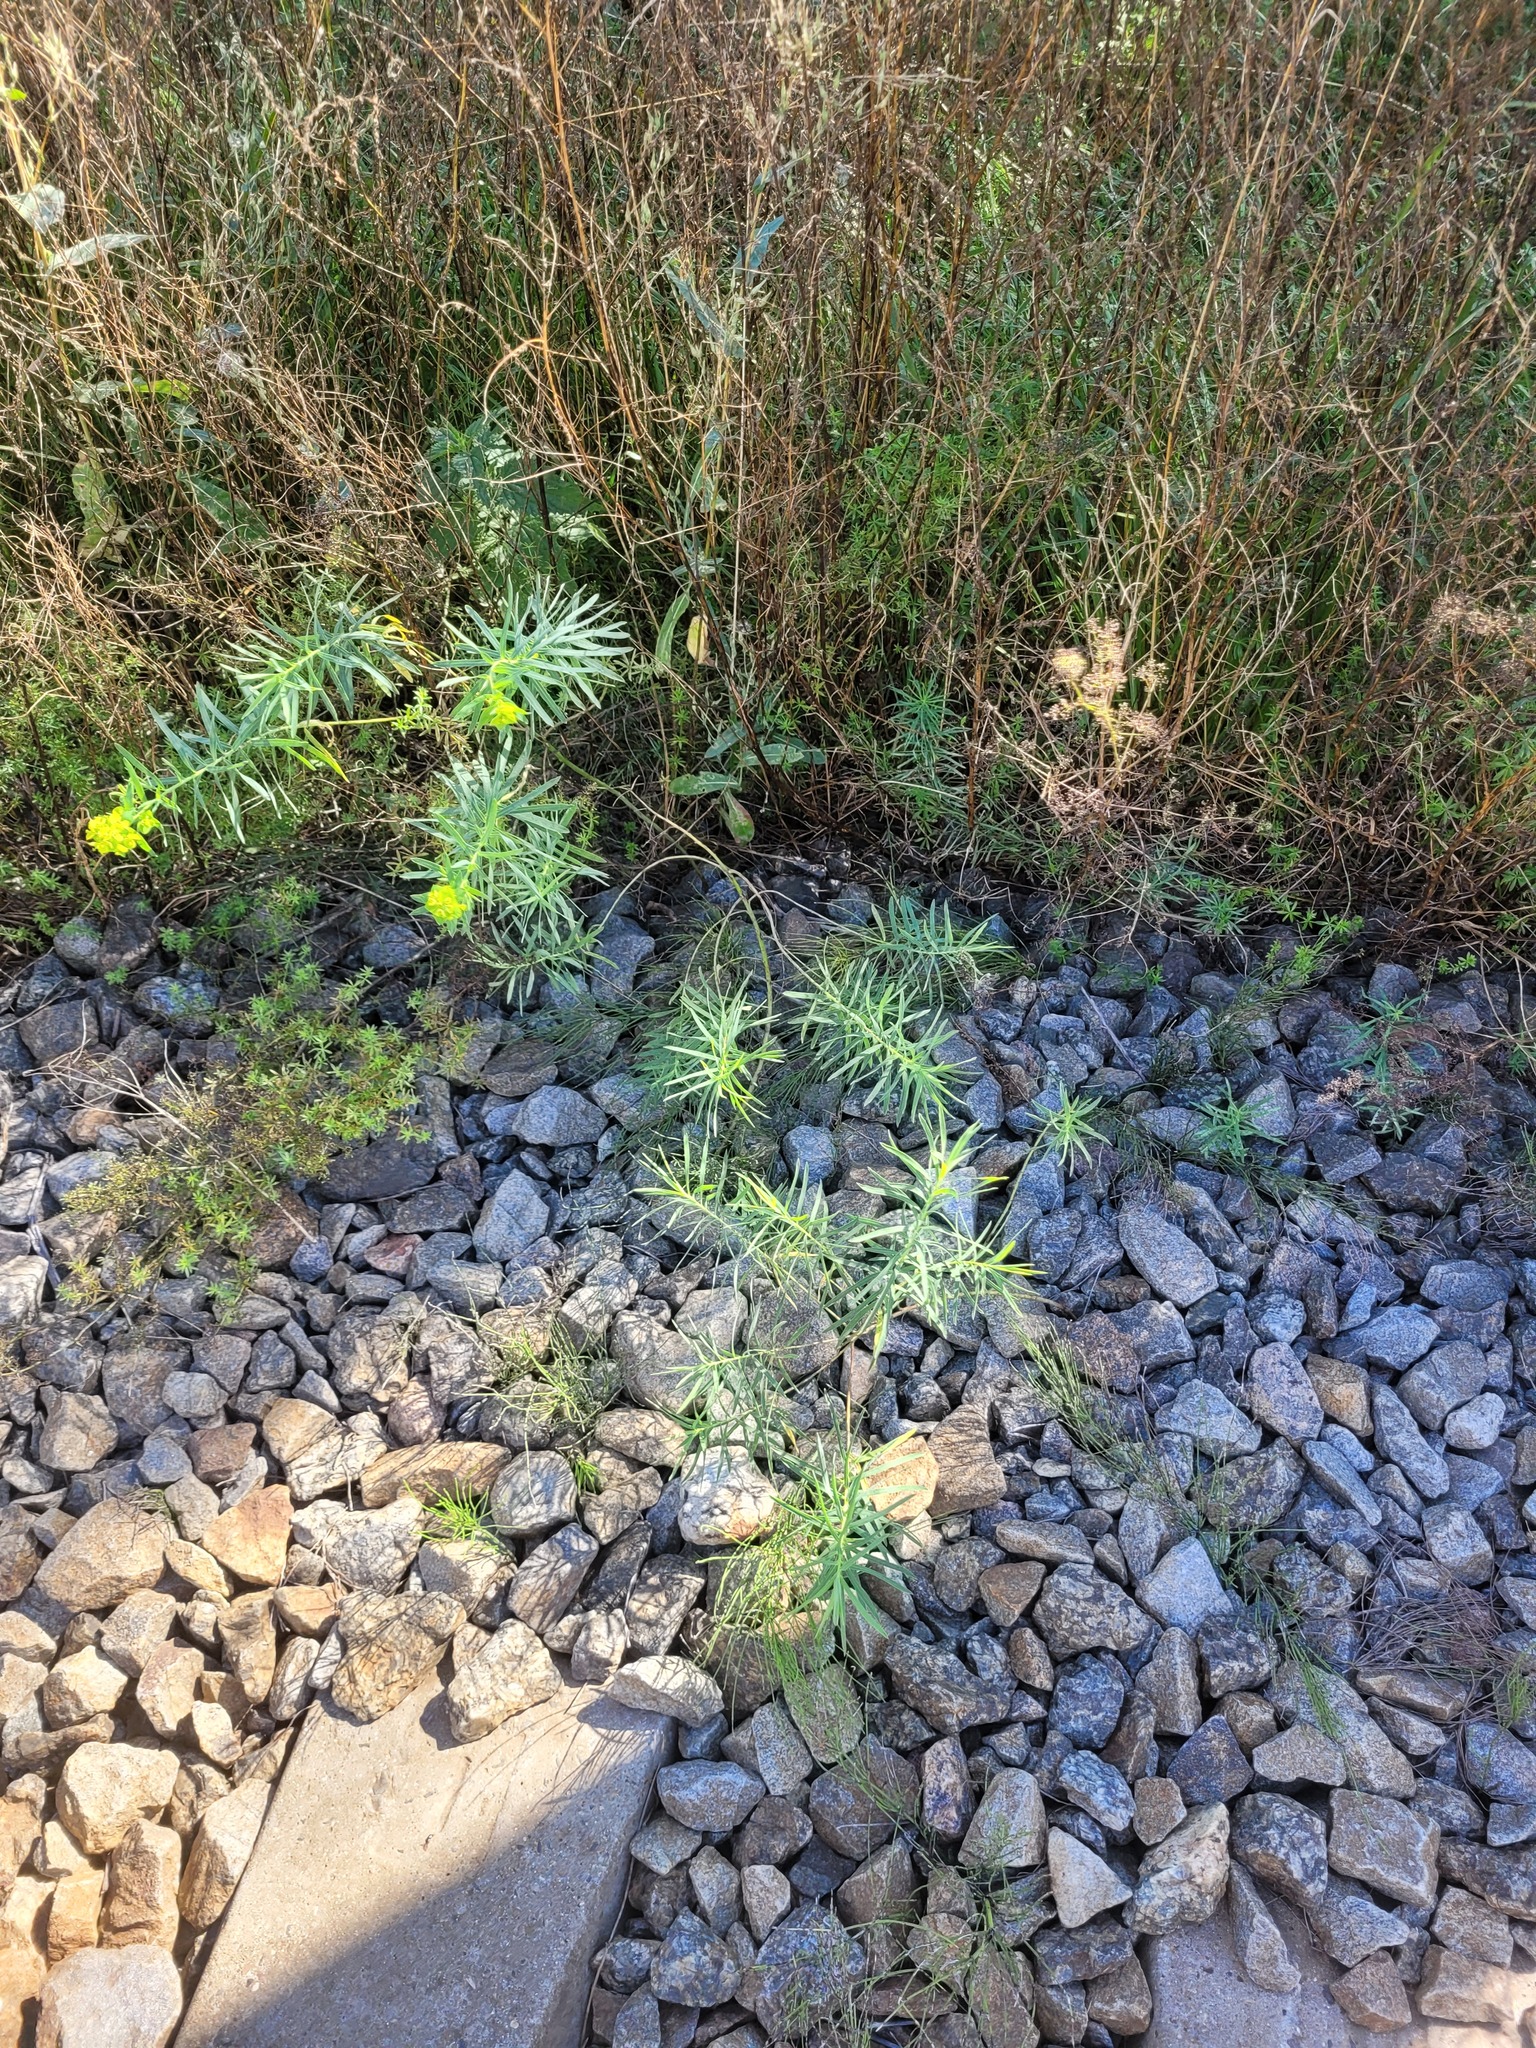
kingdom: Plantae
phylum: Tracheophyta
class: Magnoliopsida
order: Malpighiales
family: Euphorbiaceae
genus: Euphorbia
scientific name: Euphorbia virgata
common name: Leafy spurge
